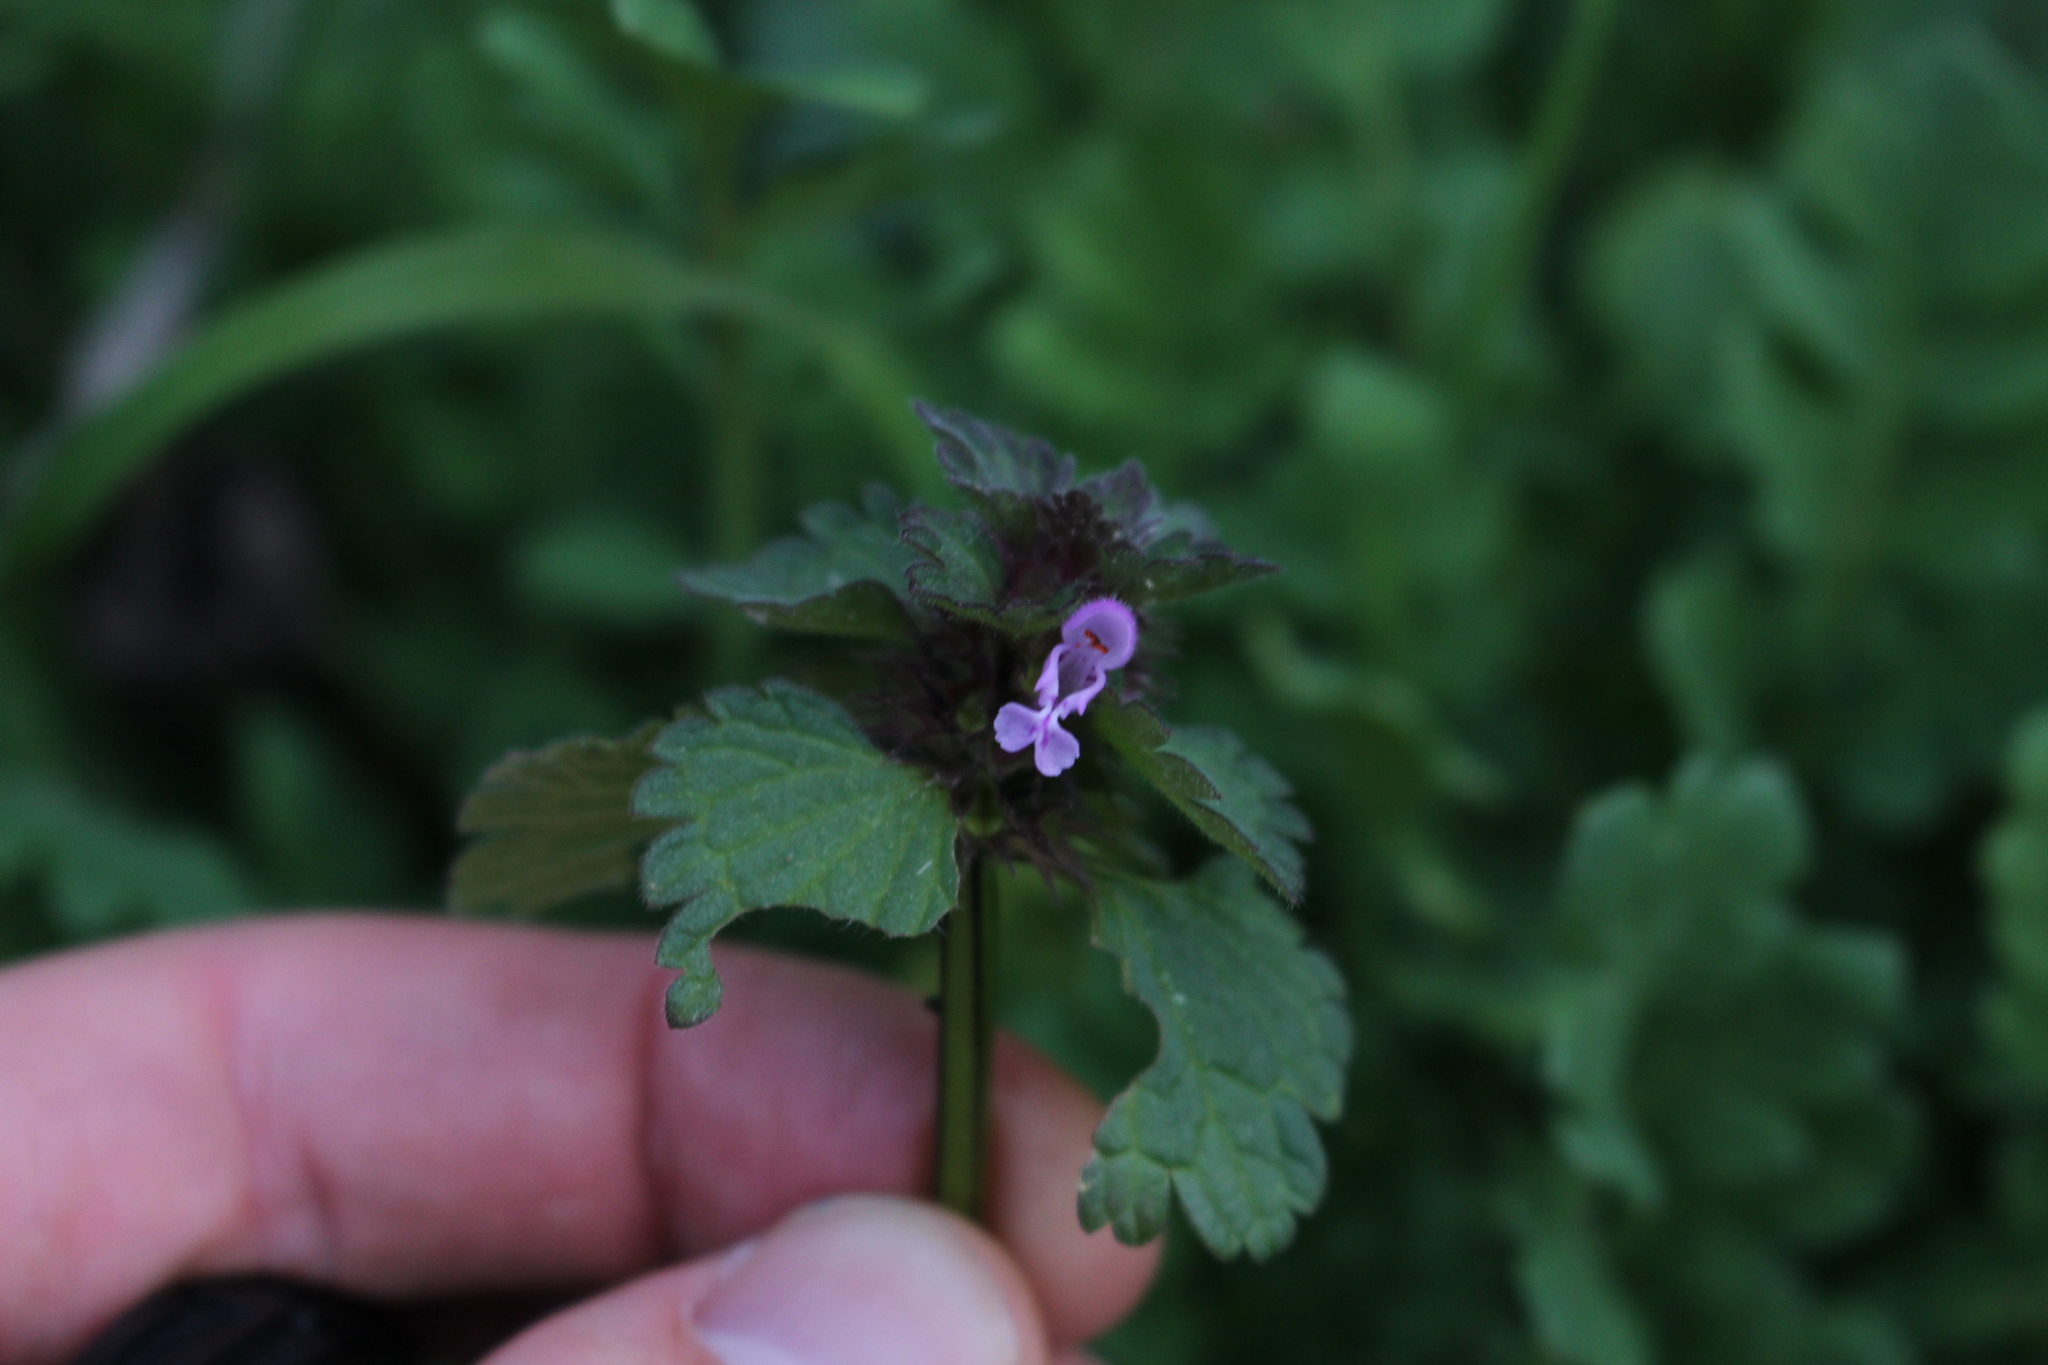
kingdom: Plantae
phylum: Tracheophyta
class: Magnoliopsida
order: Lamiales
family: Lamiaceae
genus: Lamium
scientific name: Lamium hybridum
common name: Cut-leaved dead-nettle
